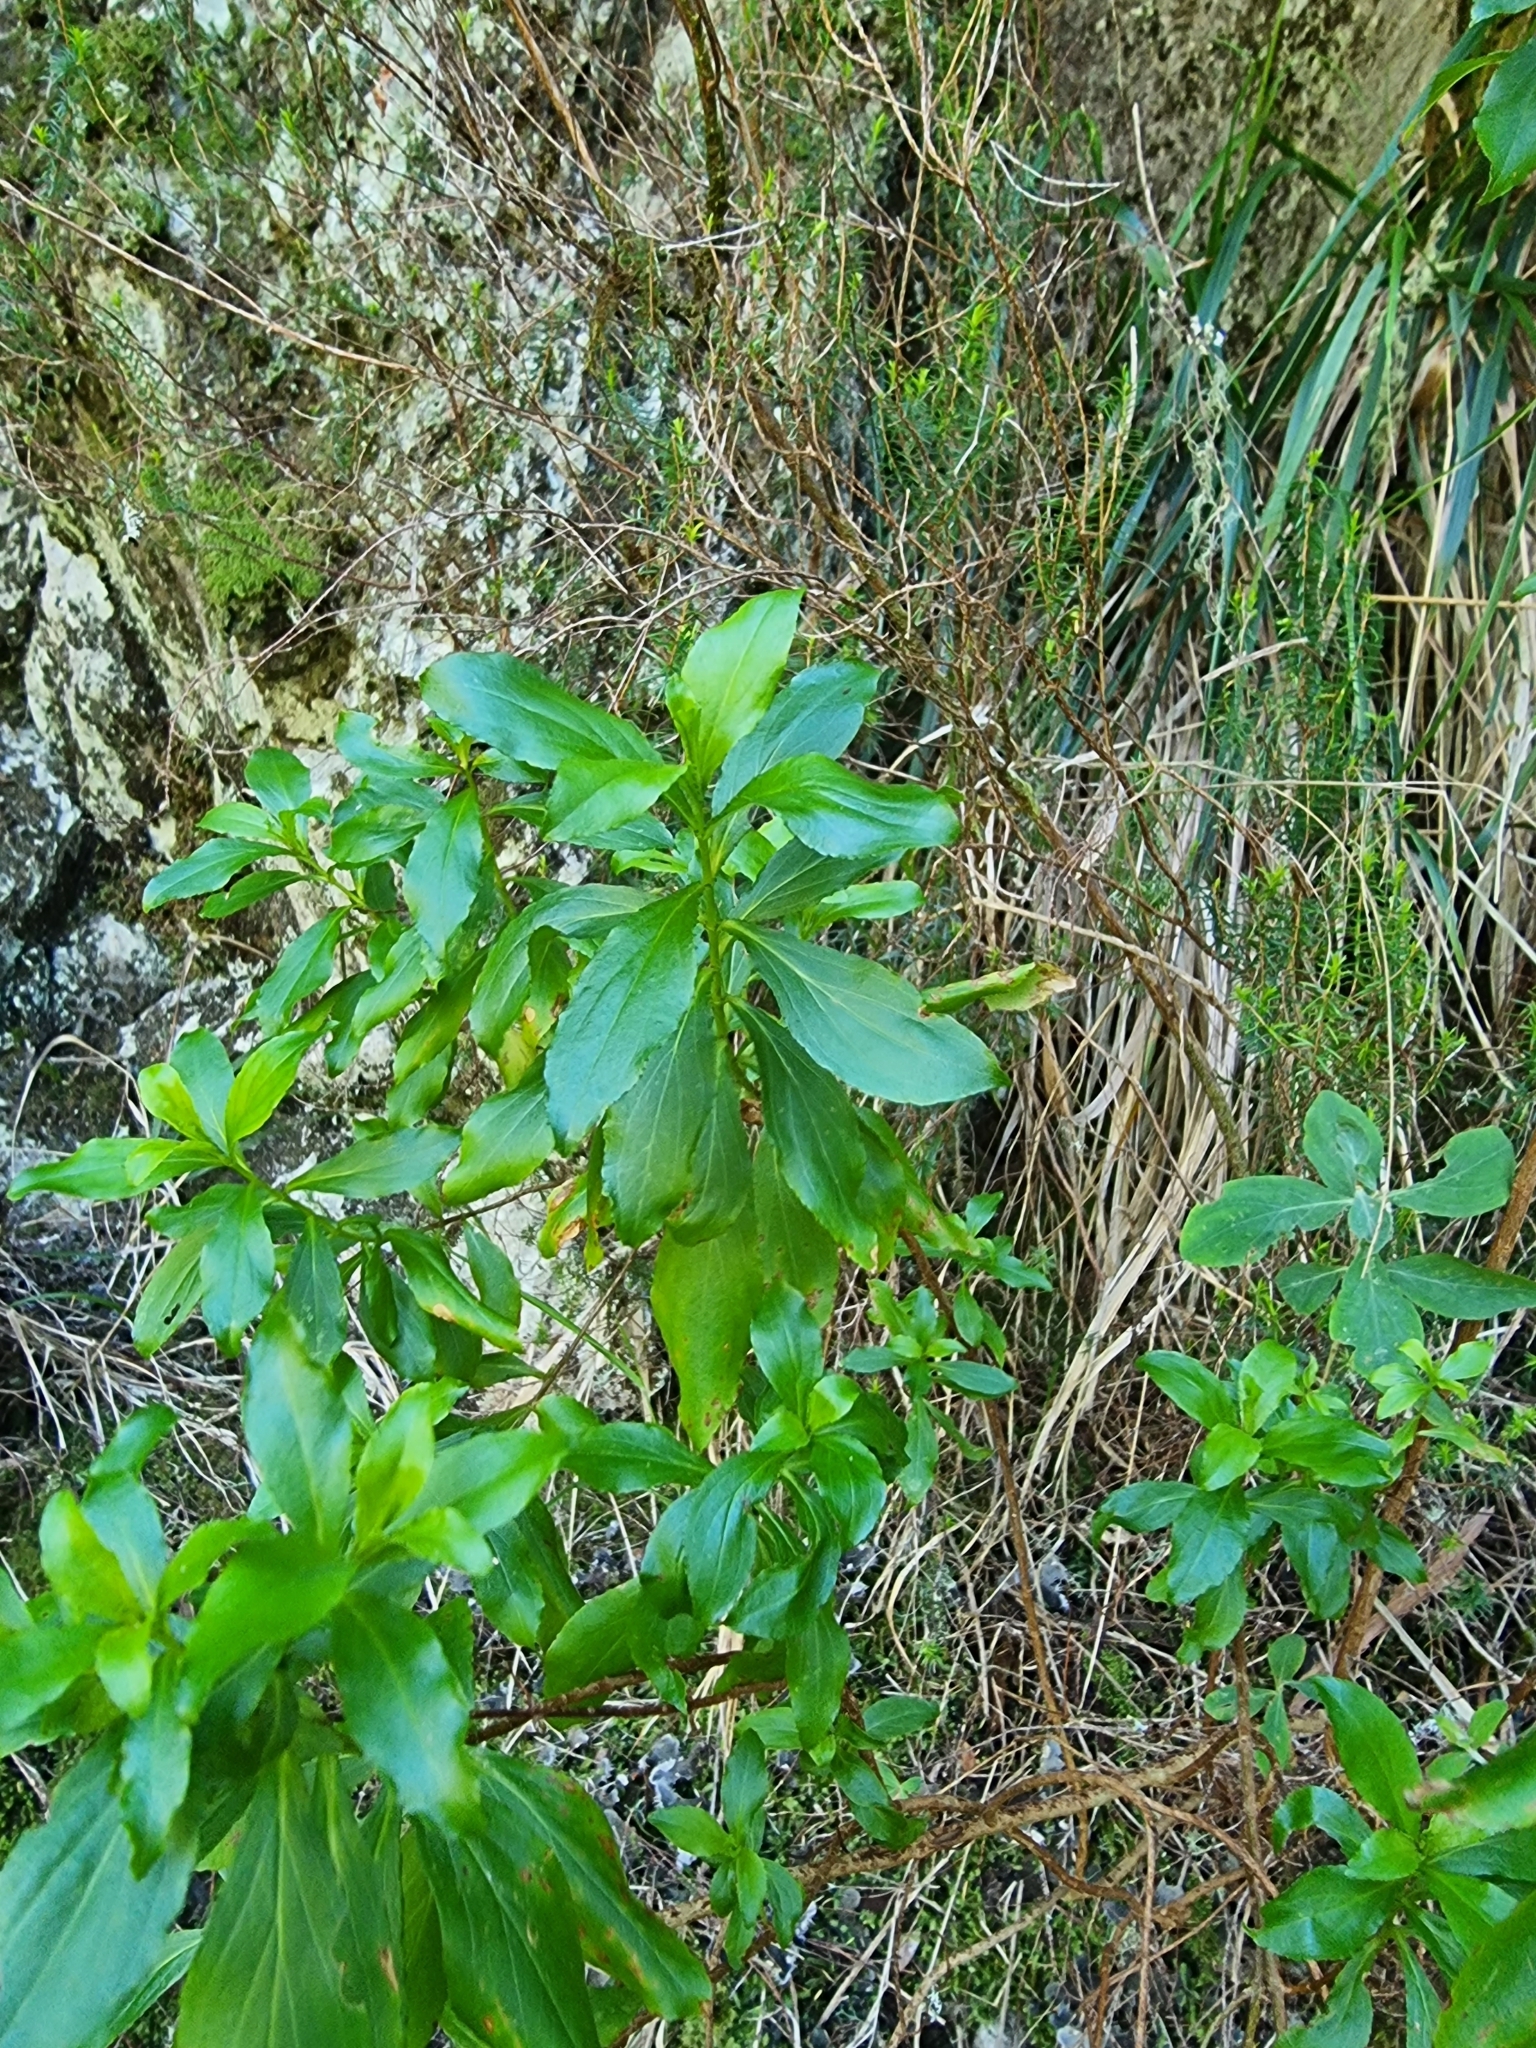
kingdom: Plantae
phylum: Tracheophyta
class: Magnoliopsida
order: Malpighiales
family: Hypericaceae
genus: Hypericum
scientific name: Hypericum glandulosum
